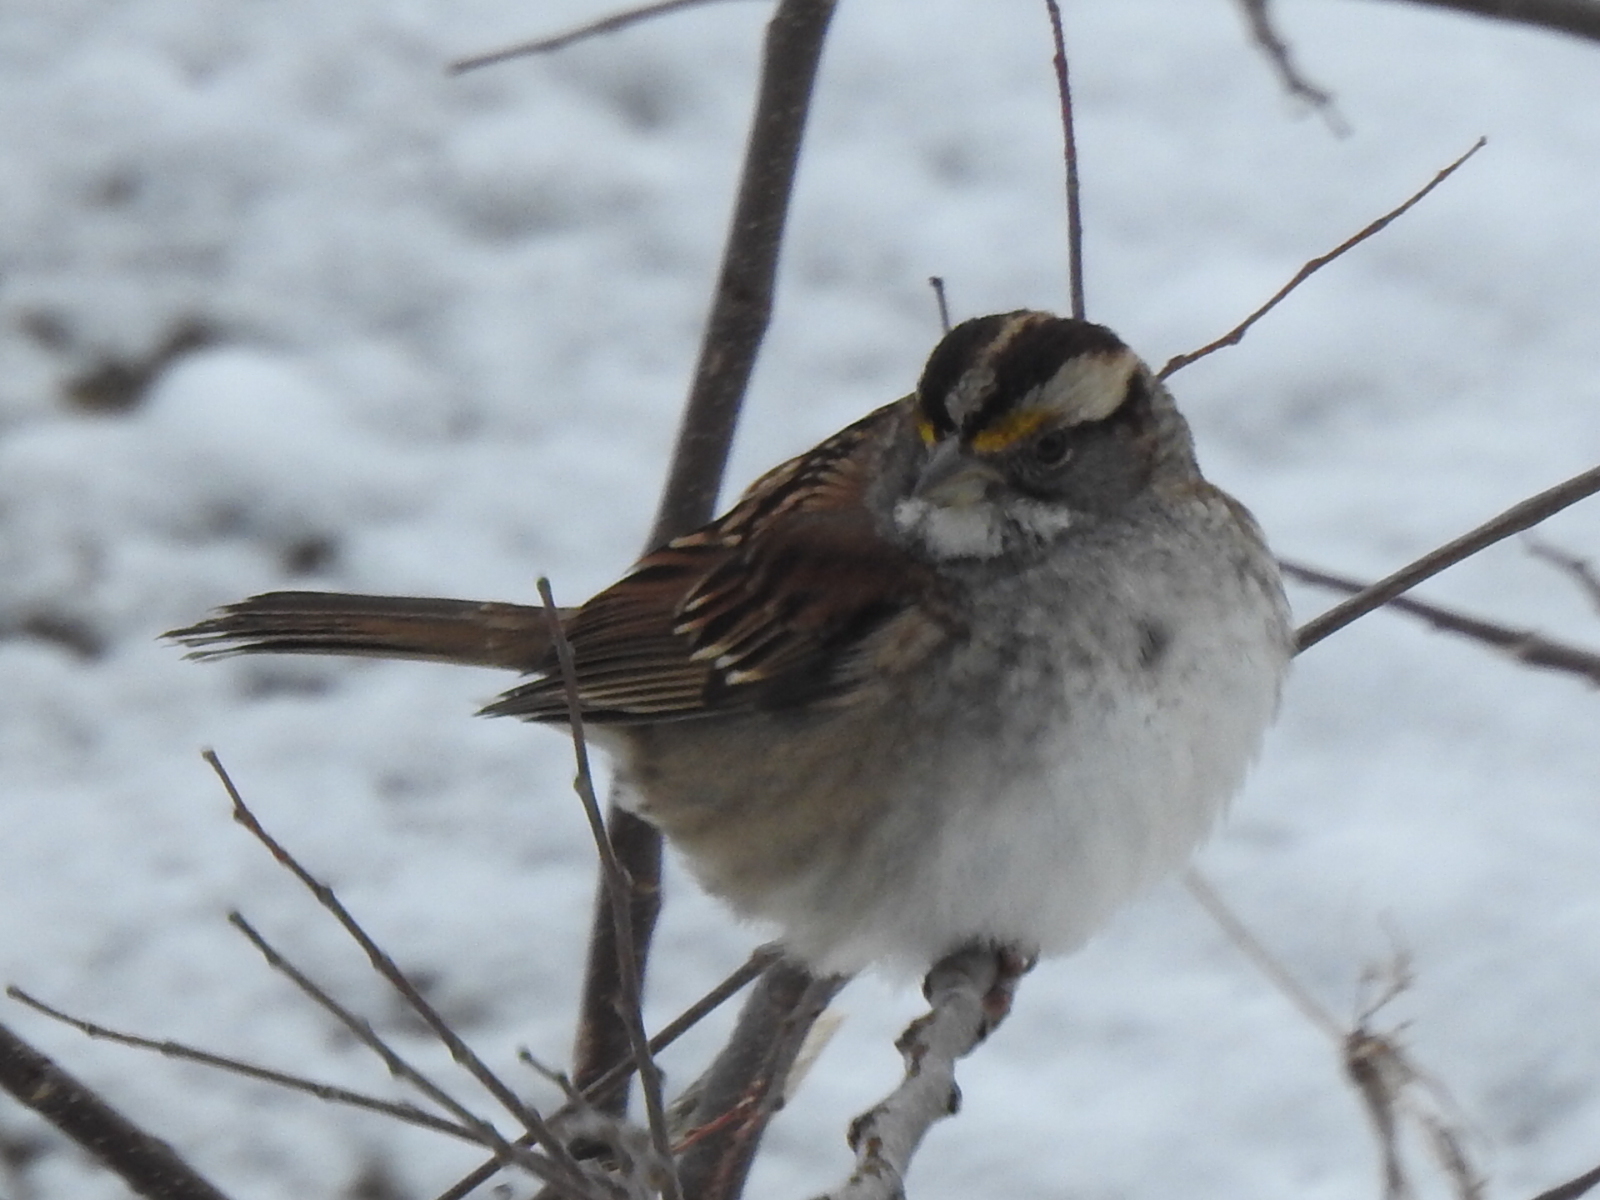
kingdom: Animalia
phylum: Chordata
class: Aves
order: Passeriformes
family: Passerellidae
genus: Zonotrichia
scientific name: Zonotrichia albicollis
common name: White-throated sparrow
